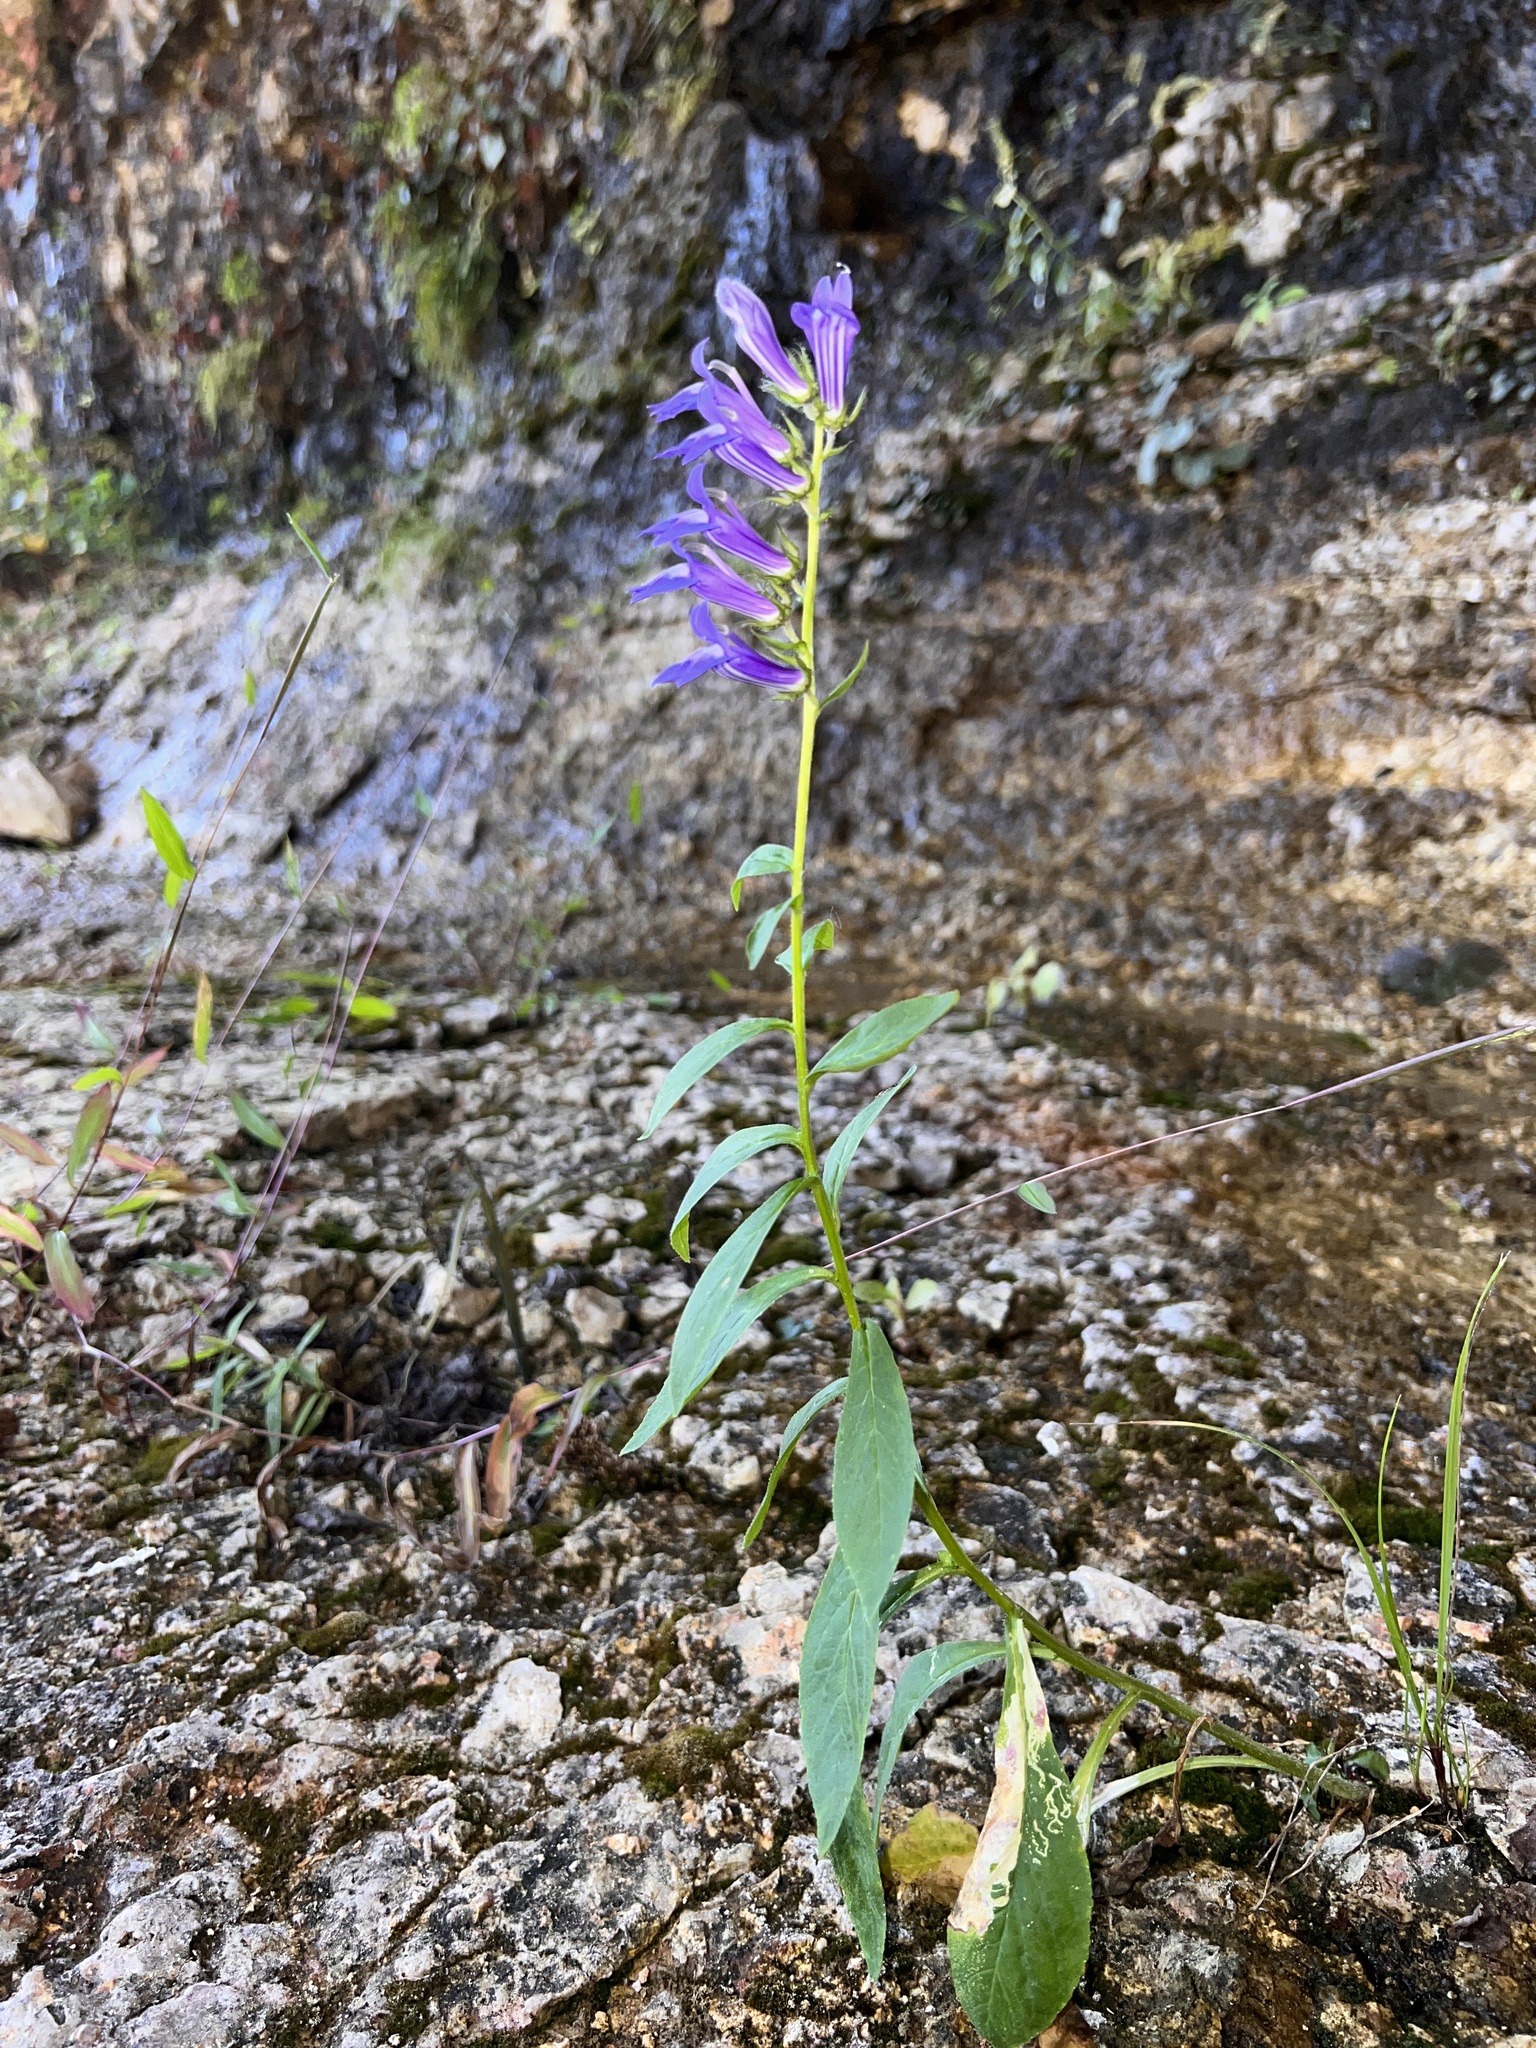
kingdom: Plantae
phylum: Tracheophyta
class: Magnoliopsida
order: Asterales
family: Campanulaceae
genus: Lobelia
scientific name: Lobelia siphilitica
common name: Great lobelia
